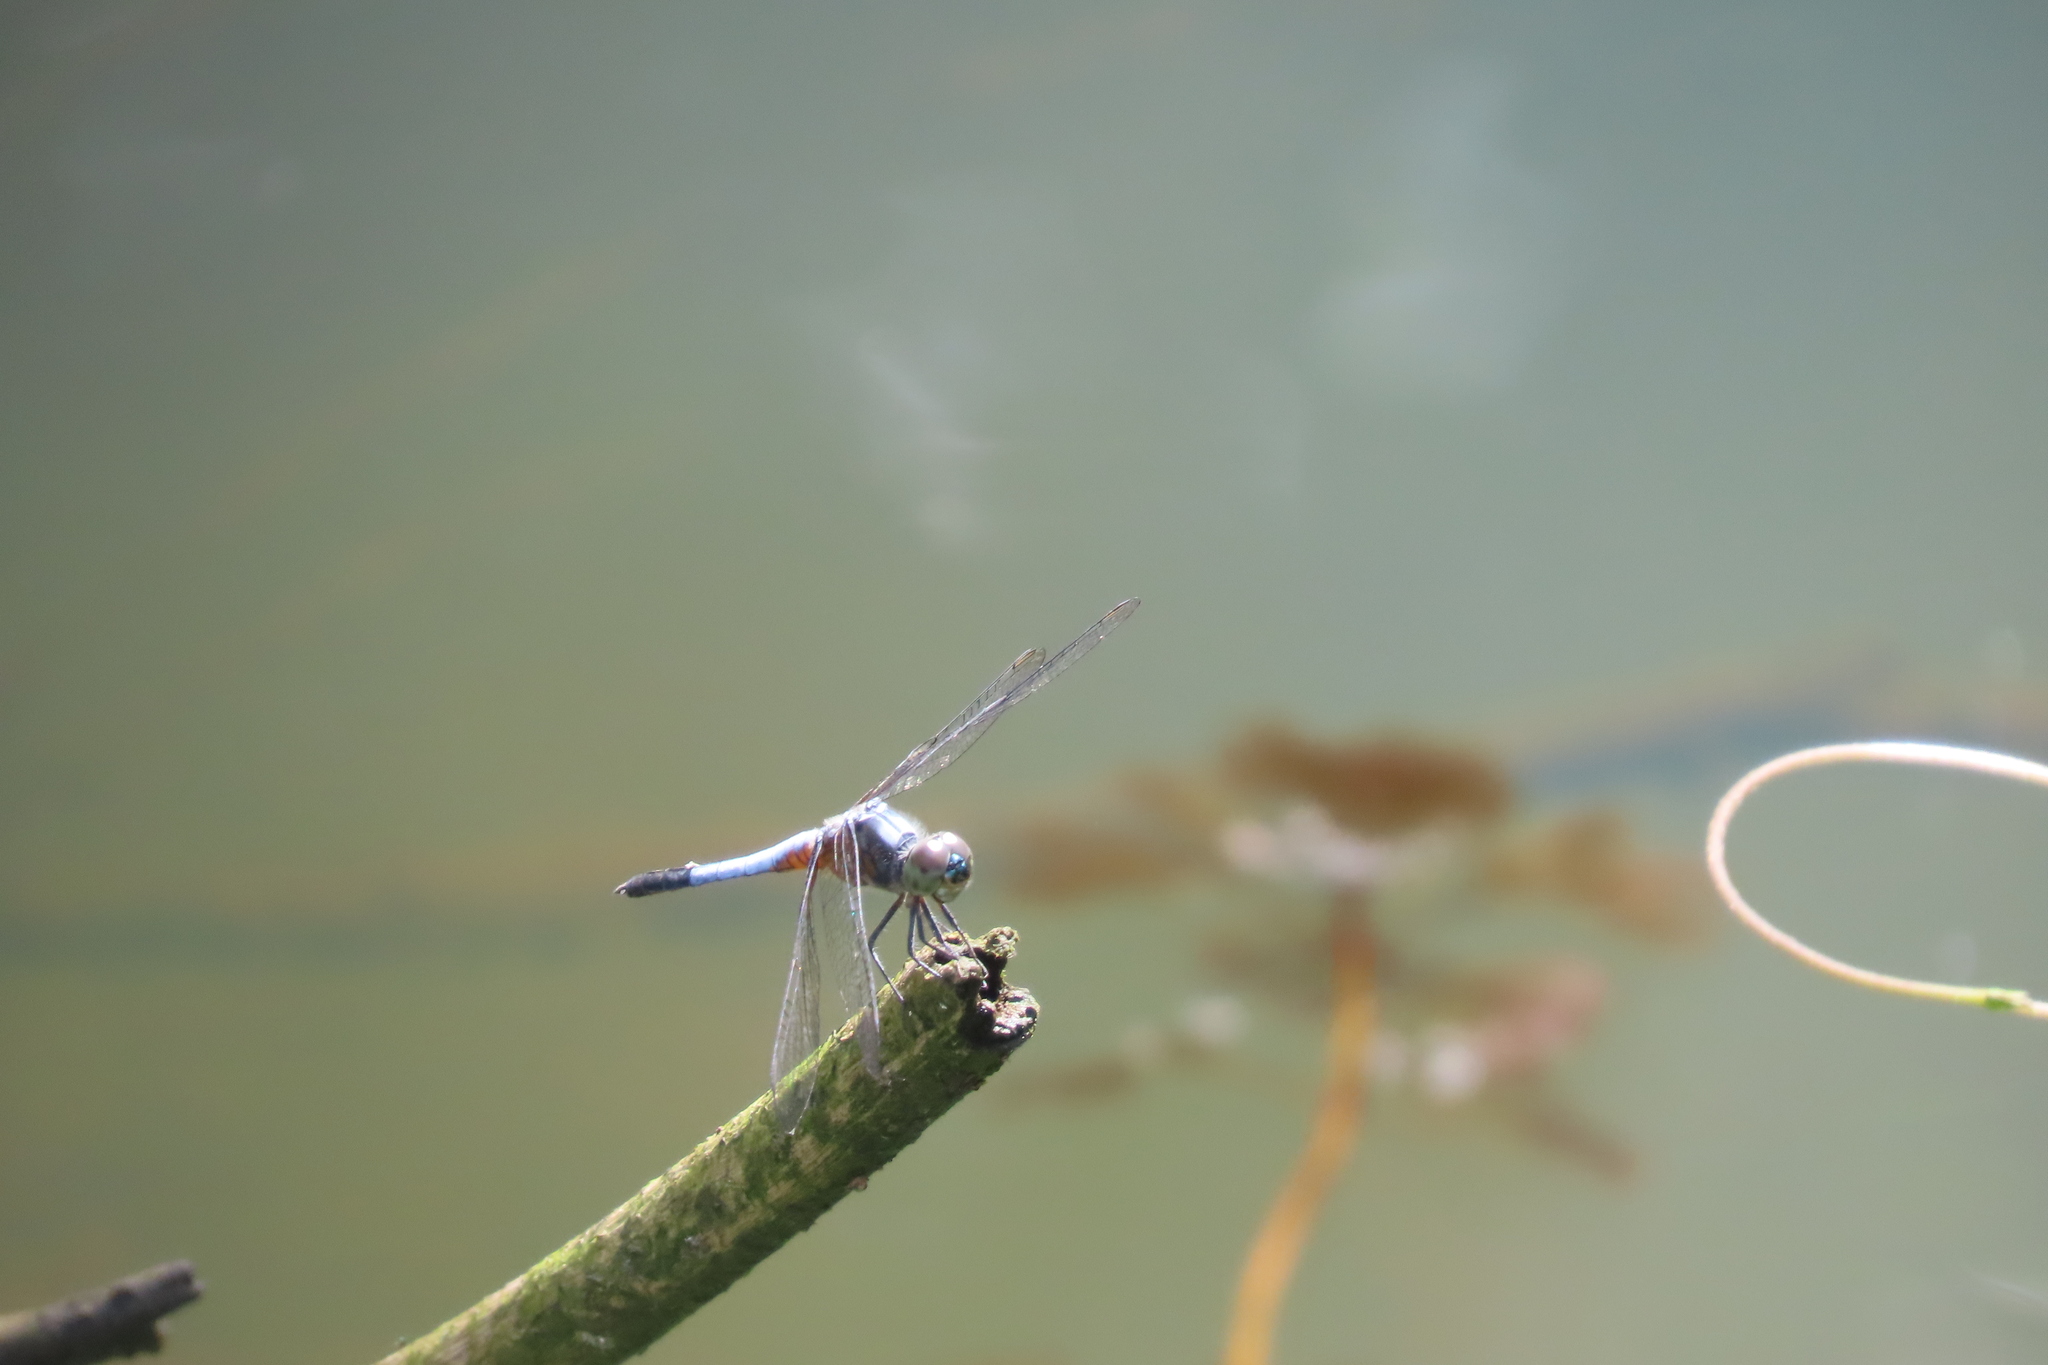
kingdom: Animalia
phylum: Arthropoda
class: Insecta
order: Odonata
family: Libellulidae
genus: Brachydiplax
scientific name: Brachydiplax chalybea
